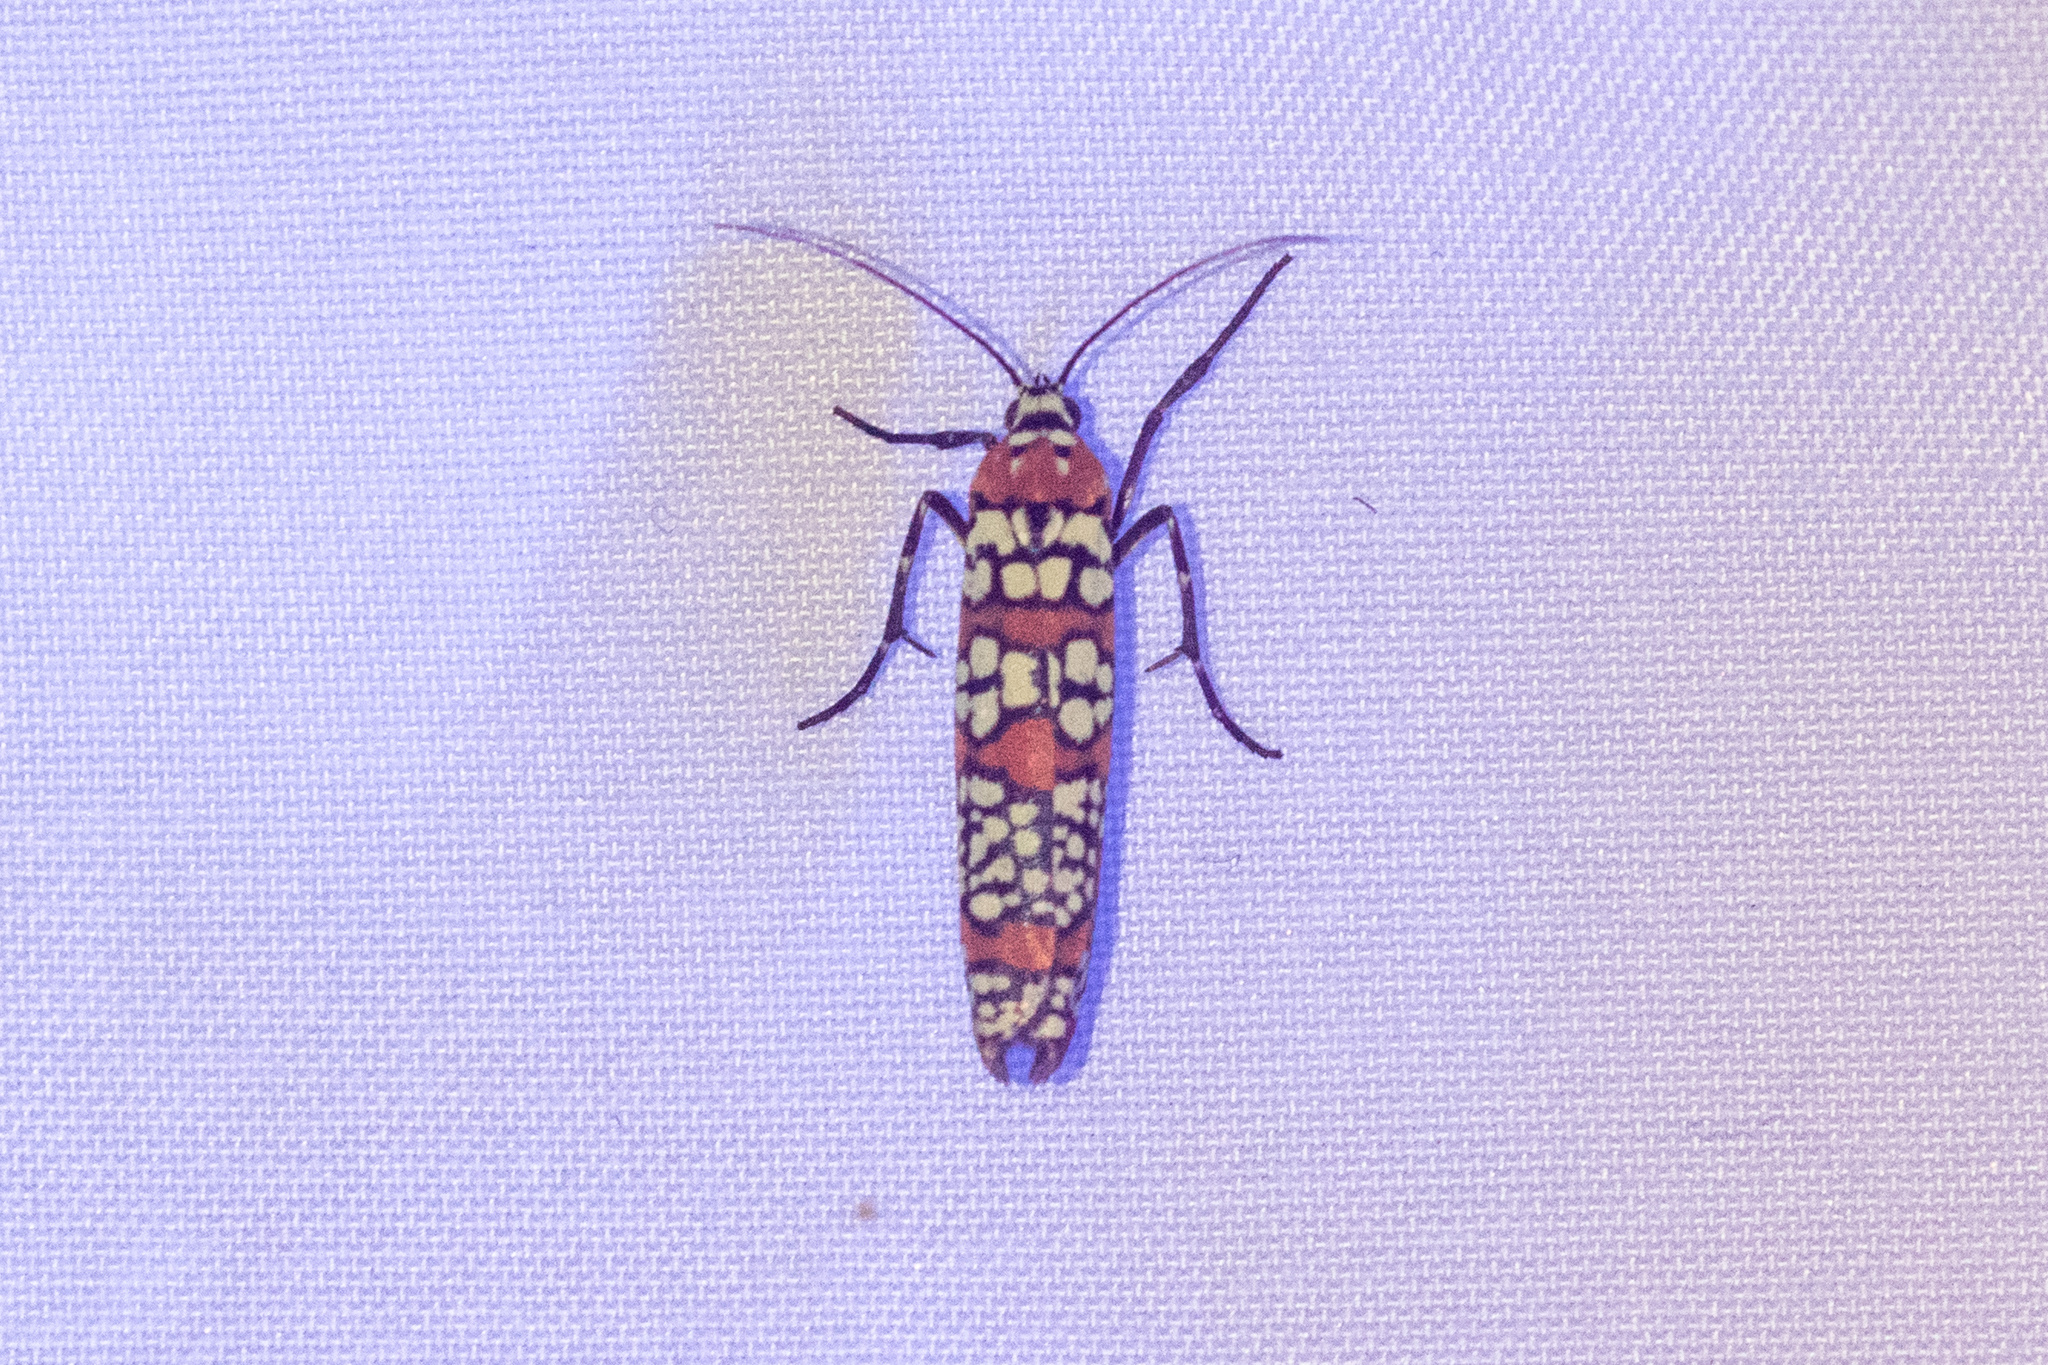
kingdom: Animalia
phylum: Arthropoda
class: Insecta
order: Lepidoptera
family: Attevidae
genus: Atteva
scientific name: Atteva punctella
